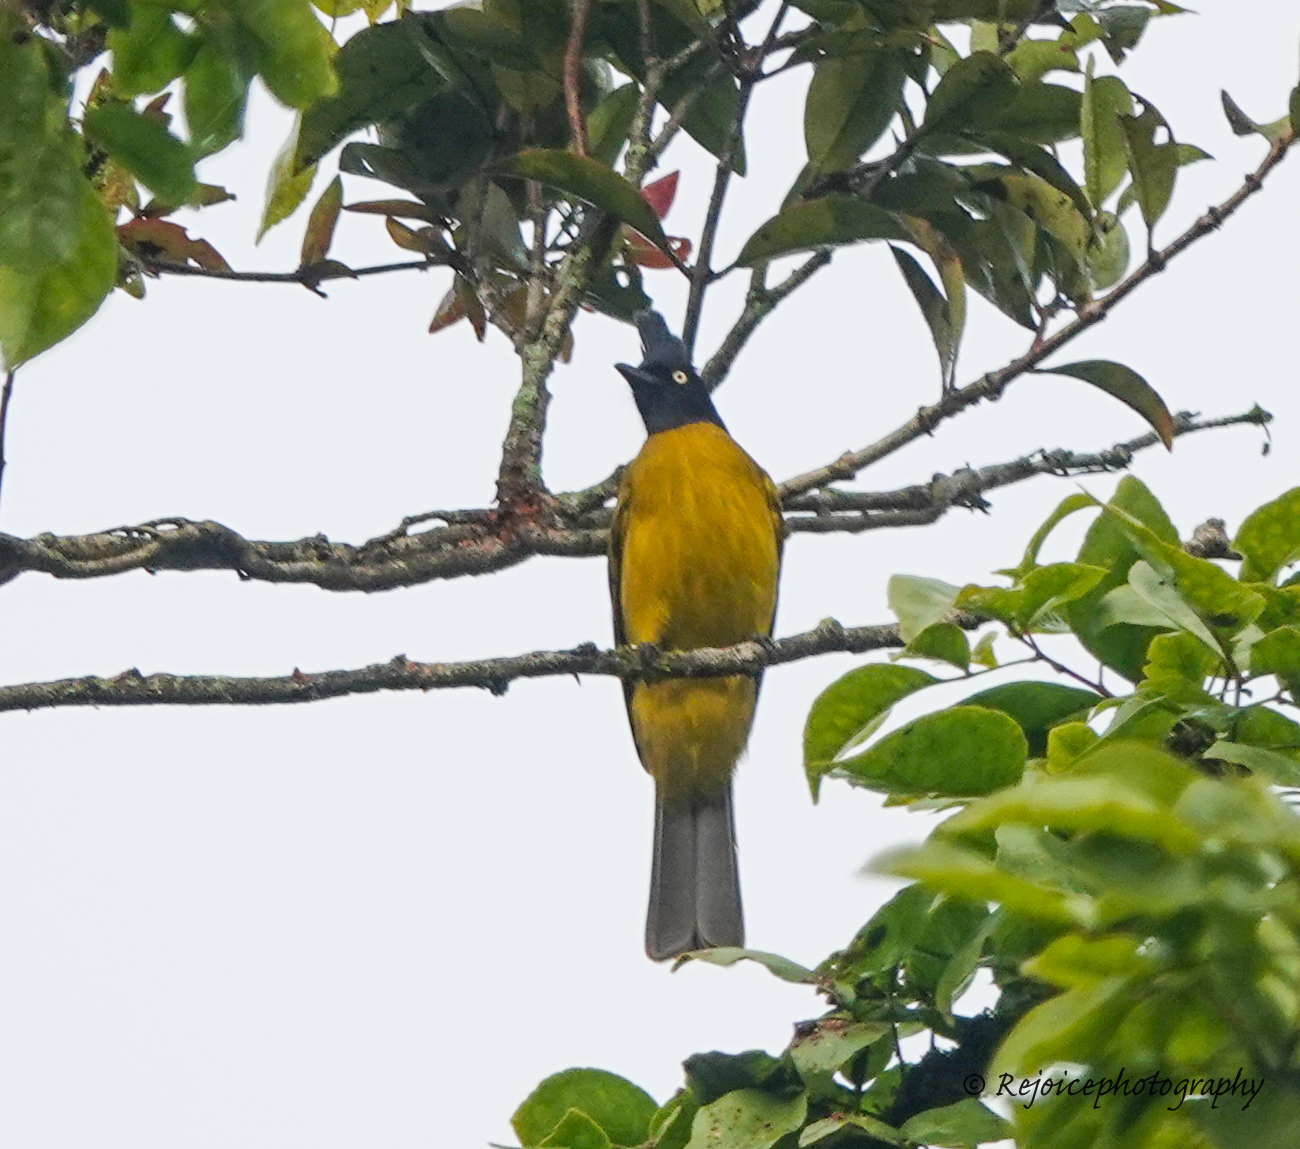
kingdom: Animalia
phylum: Chordata
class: Aves
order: Passeriformes
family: Pycnonotidae
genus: Pycnonotus
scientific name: Pycnonotus flaviventris
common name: Black-crested bulbul
